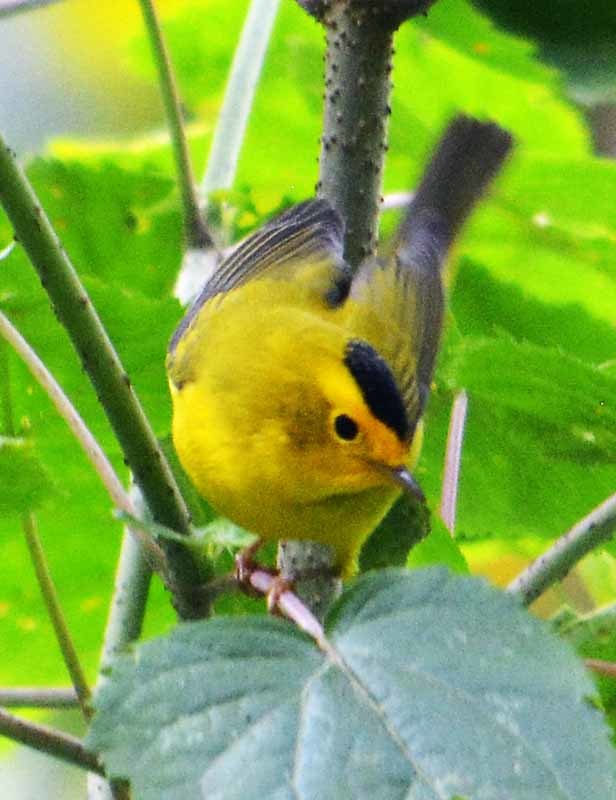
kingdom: Animalia
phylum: Chordata
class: Aves
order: Passeriformes
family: Parulidae
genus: Cardellina
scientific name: Cardellina pusilla
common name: Wilson's warbler
